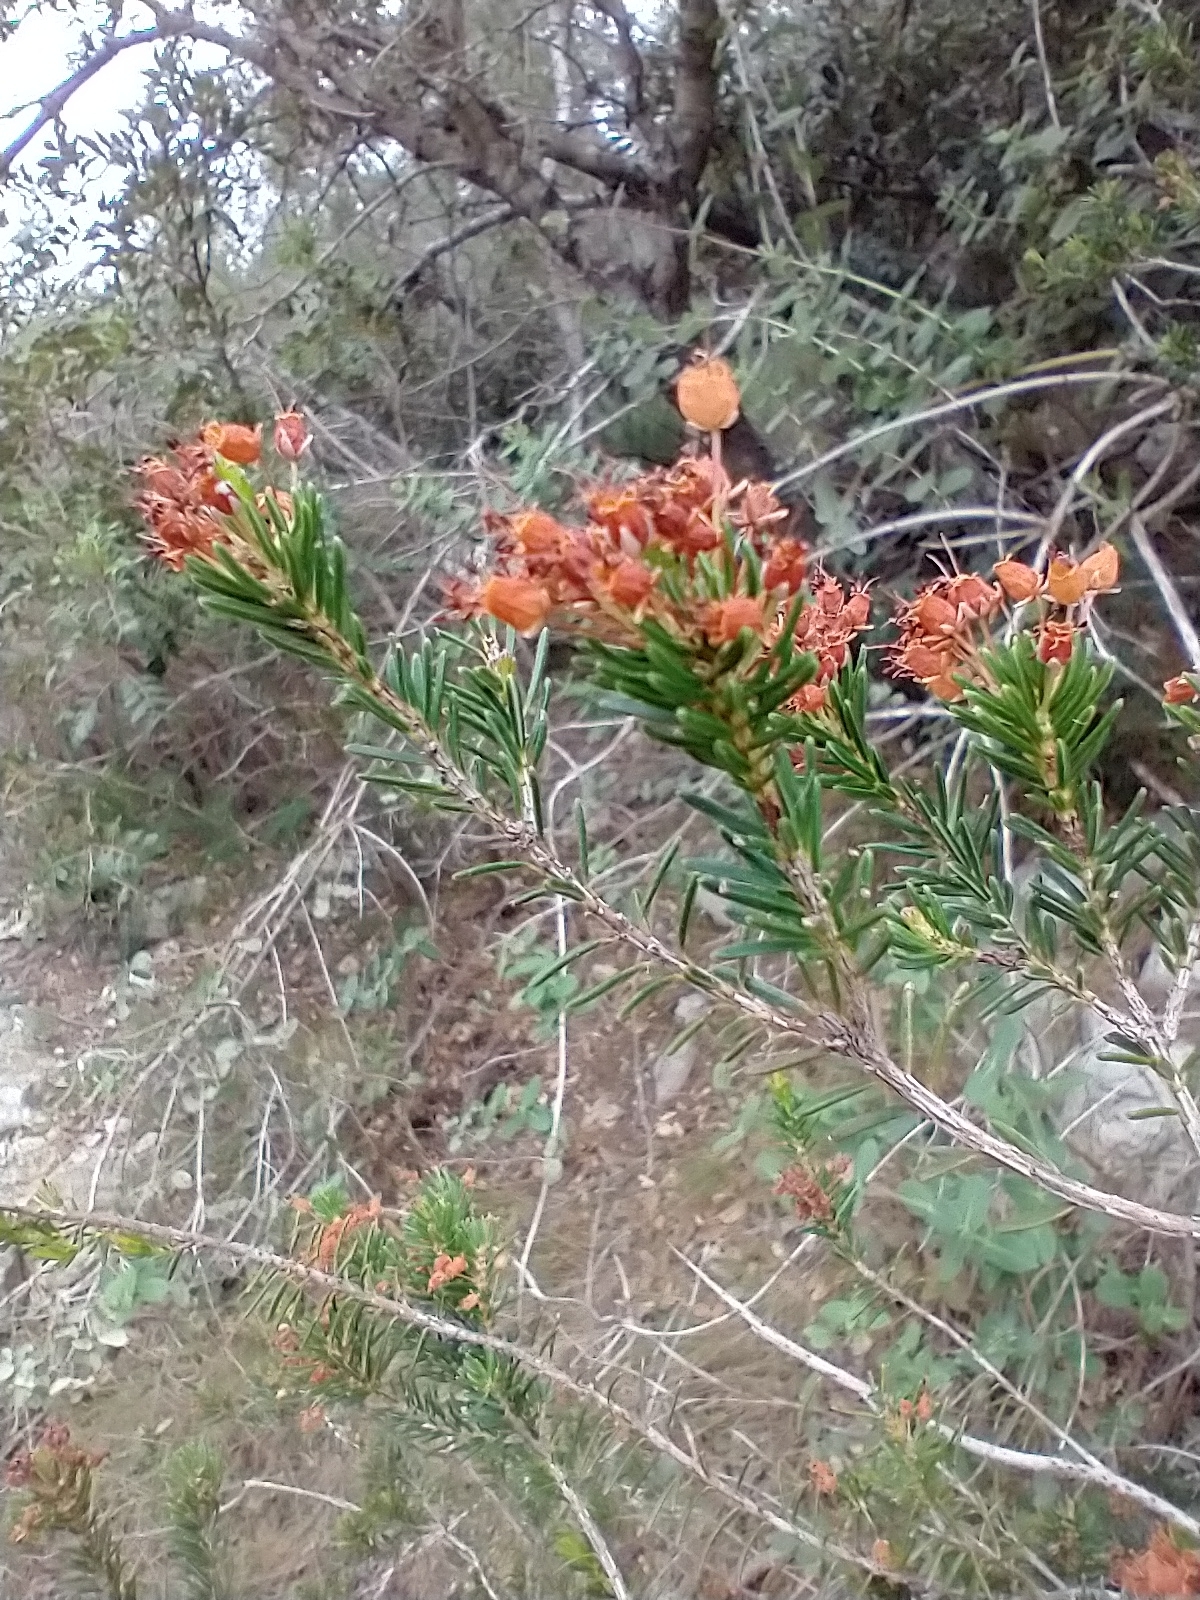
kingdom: Plantae
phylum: Tracheophyta
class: Magnoliopsida
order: Ericales
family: Ericaceae
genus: Erica
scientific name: Erica multiflora
